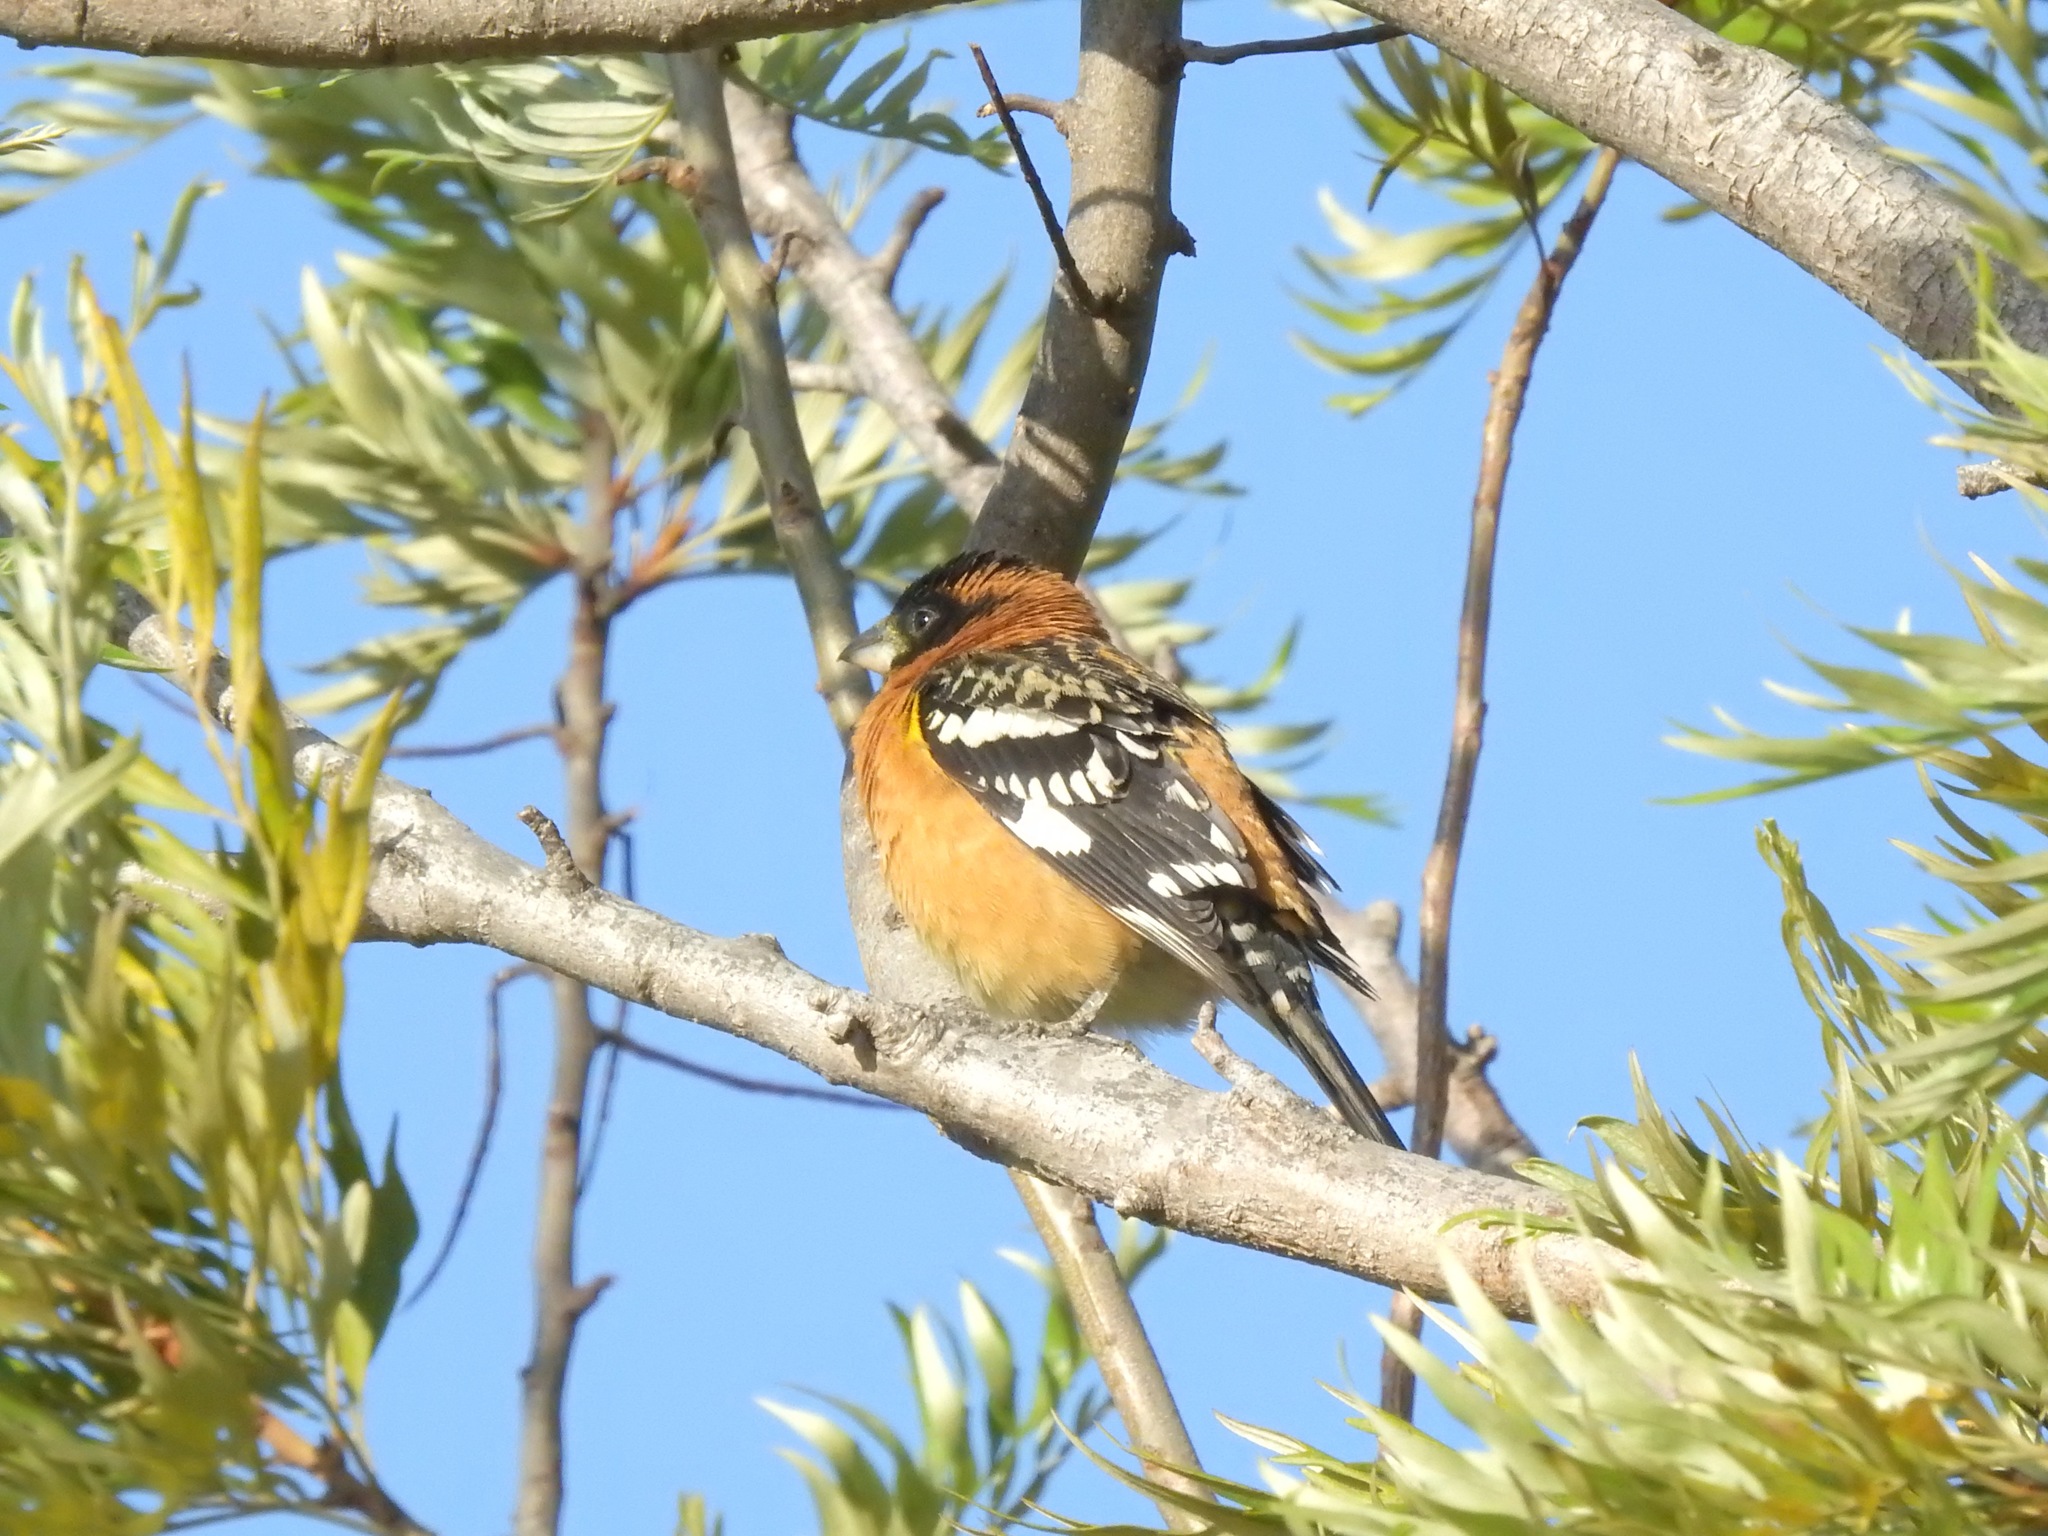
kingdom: Animalia
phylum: Chordata
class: Aves
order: Passeriformes
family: Cardinalidae
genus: Pheucticus
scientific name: Pheucticus melanocephalus
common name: Black-headed grosbeak
